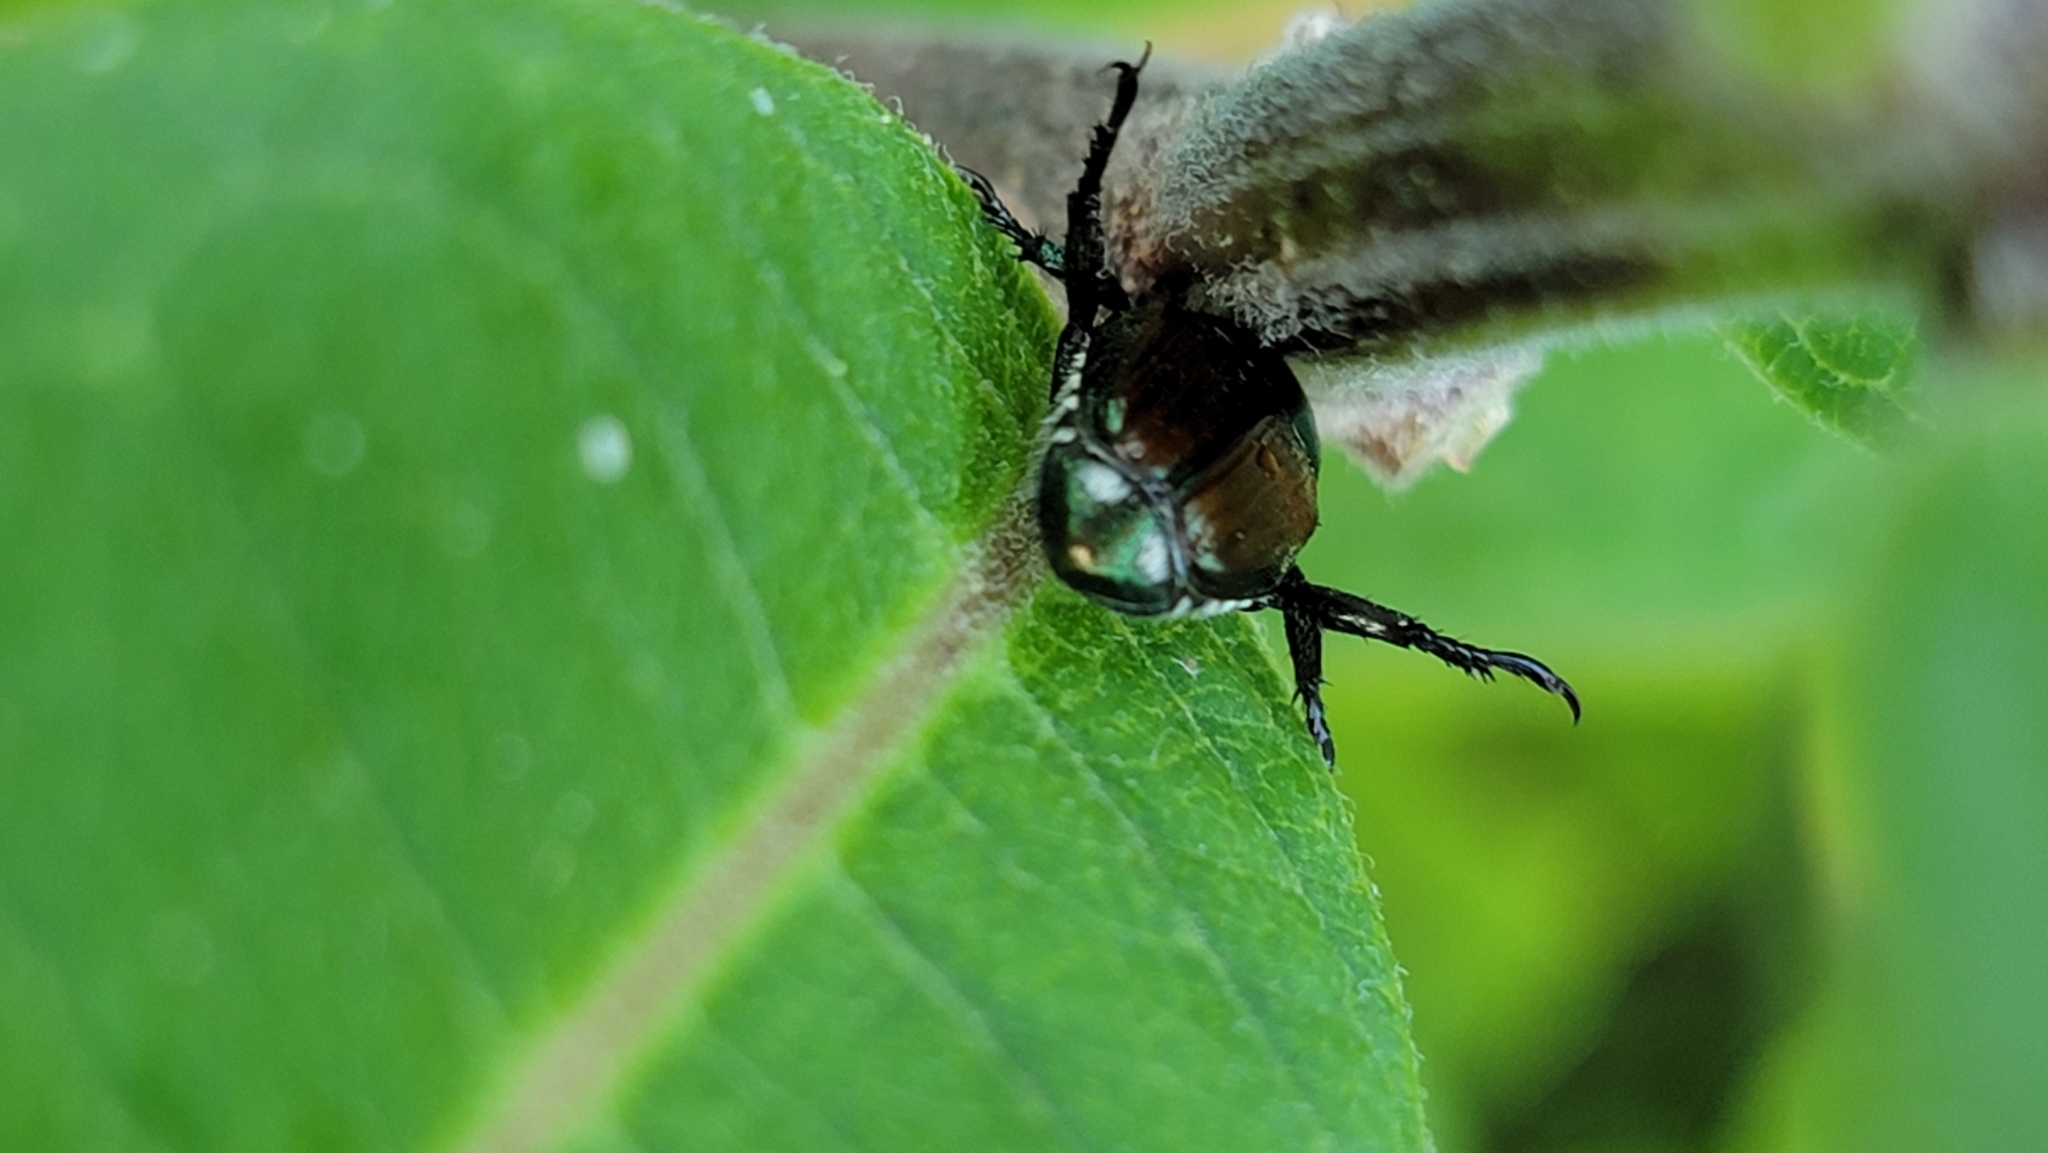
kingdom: Animalia
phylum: Arthropoda
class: Insecta
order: Coleoptera
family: Scarabaeidae
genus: Popillia
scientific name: Popillia japonica
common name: Japanese beetle
